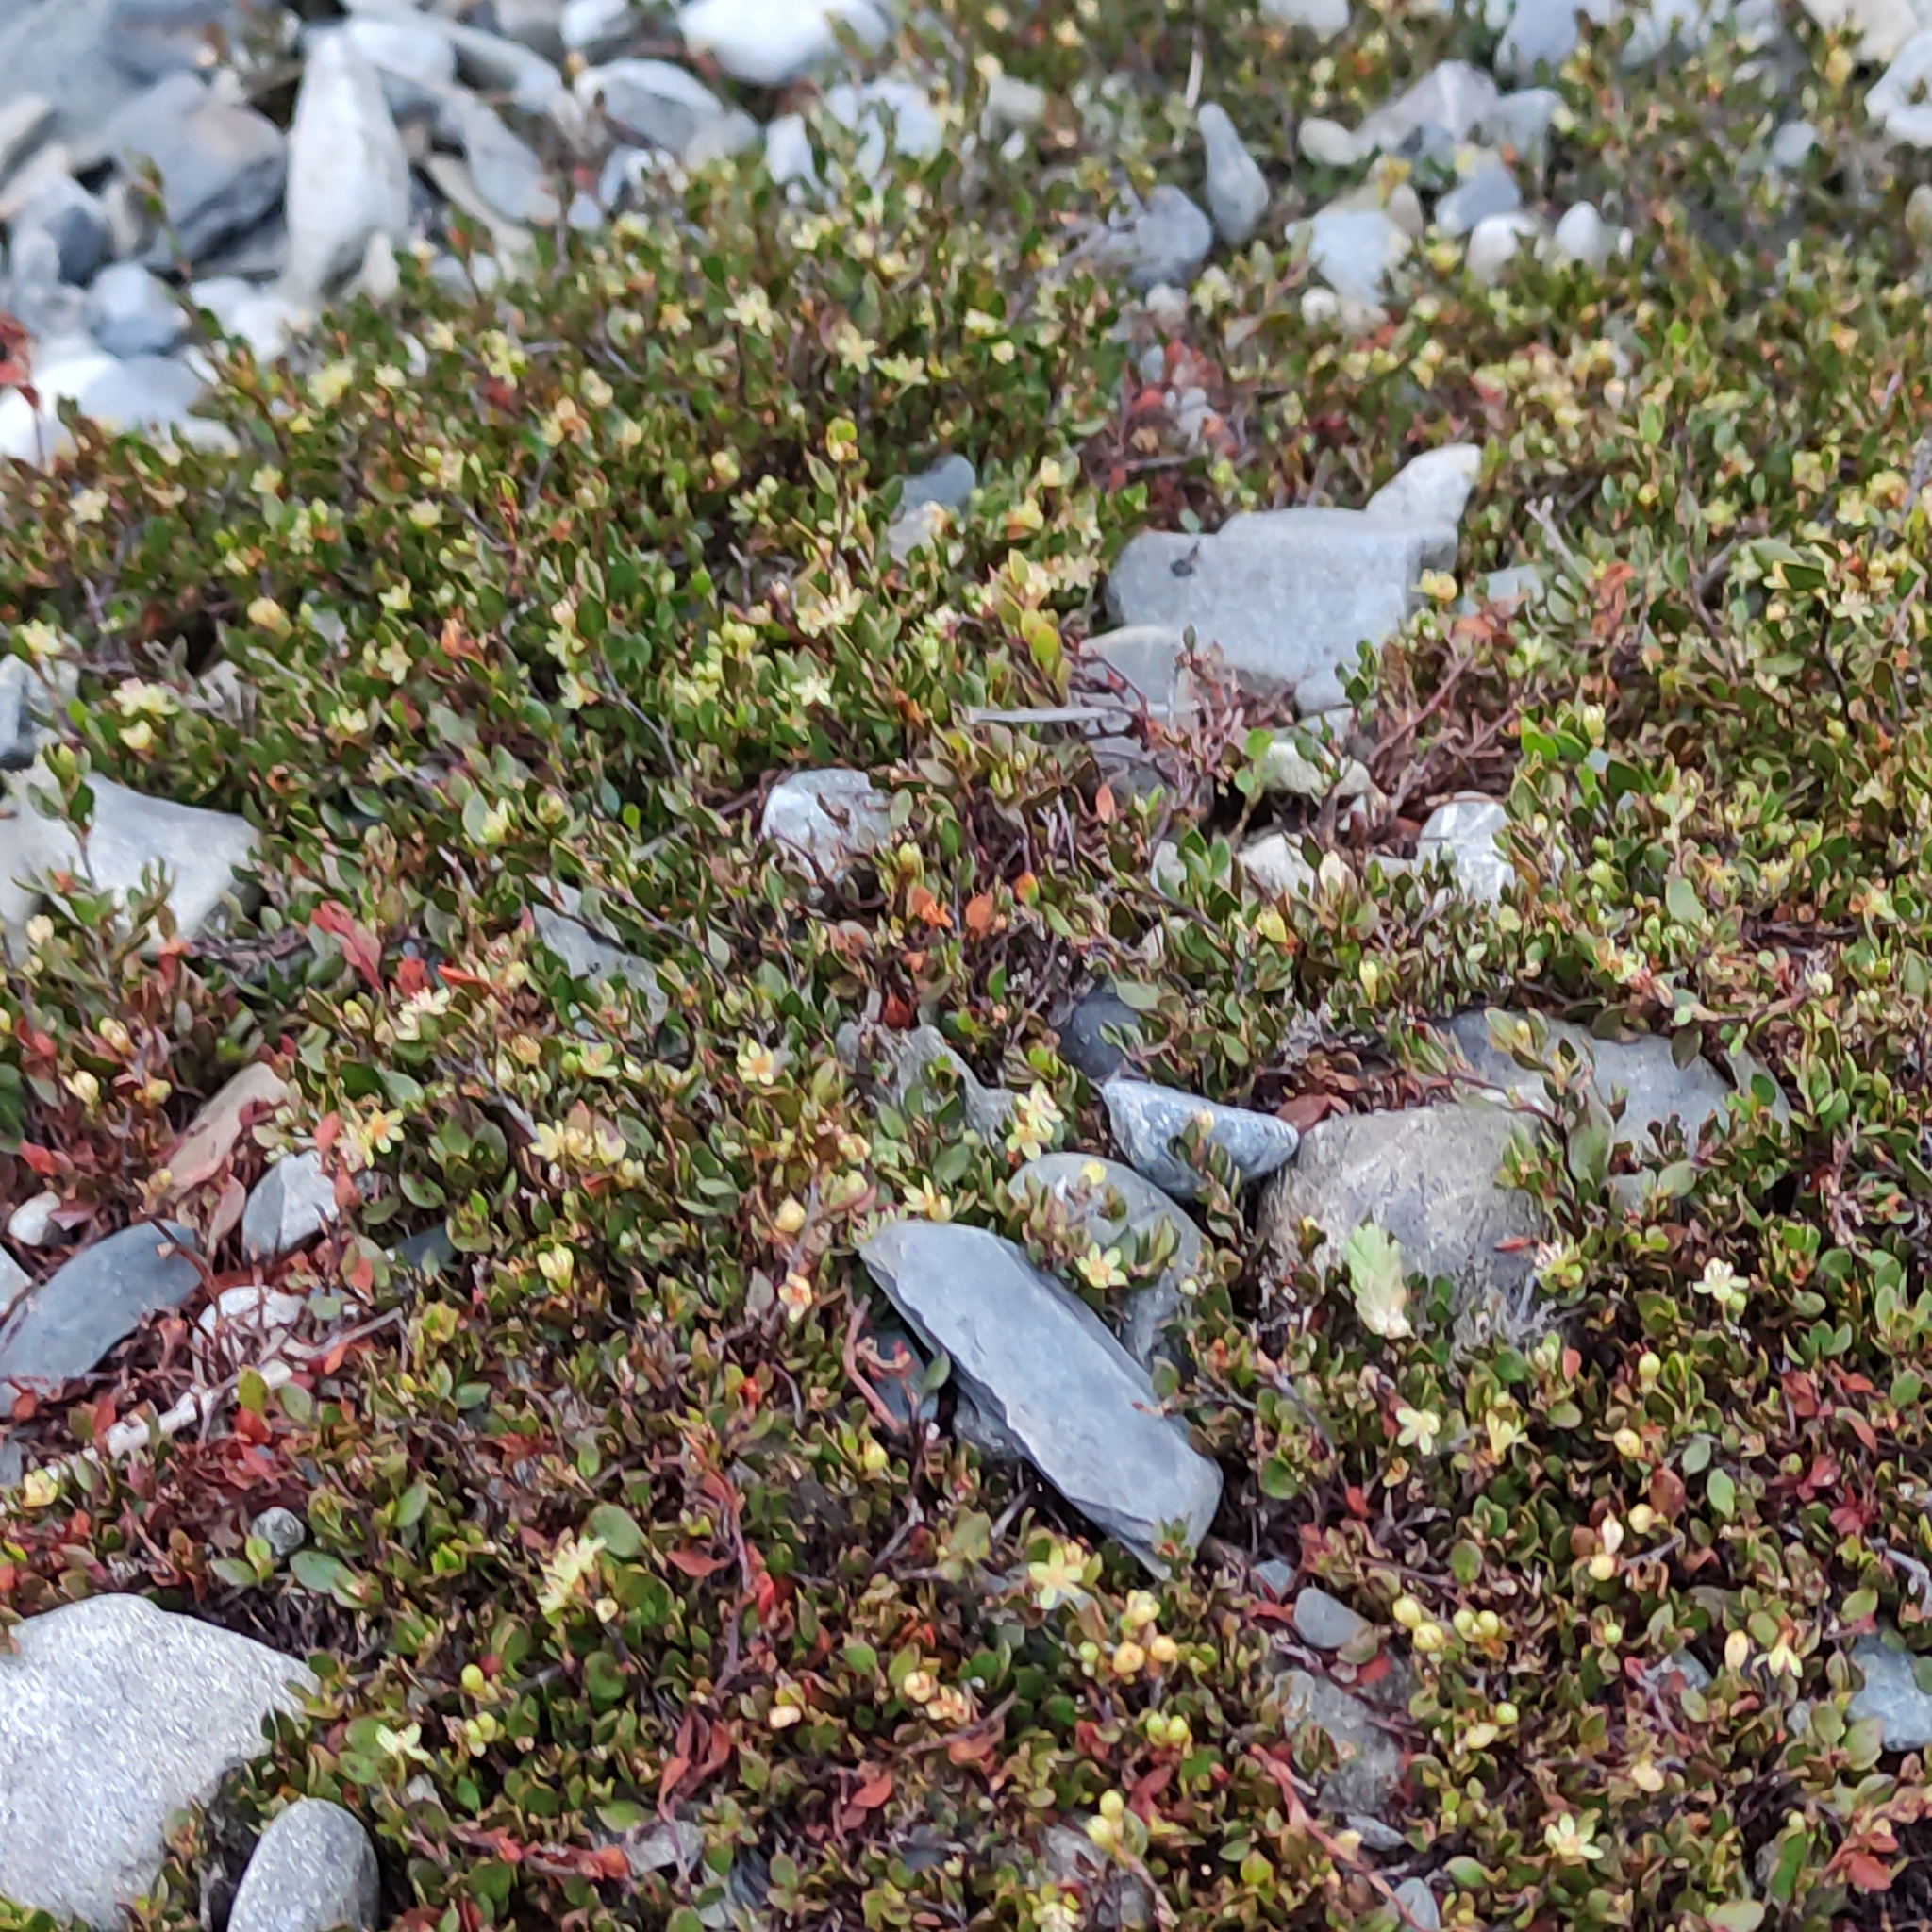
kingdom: Plantae
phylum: Tracheophyta
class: Magnoliopsida
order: Caryophyllales
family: Polygonaceae
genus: Muehlenbeckia
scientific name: Muehlenbeckia axillaris
